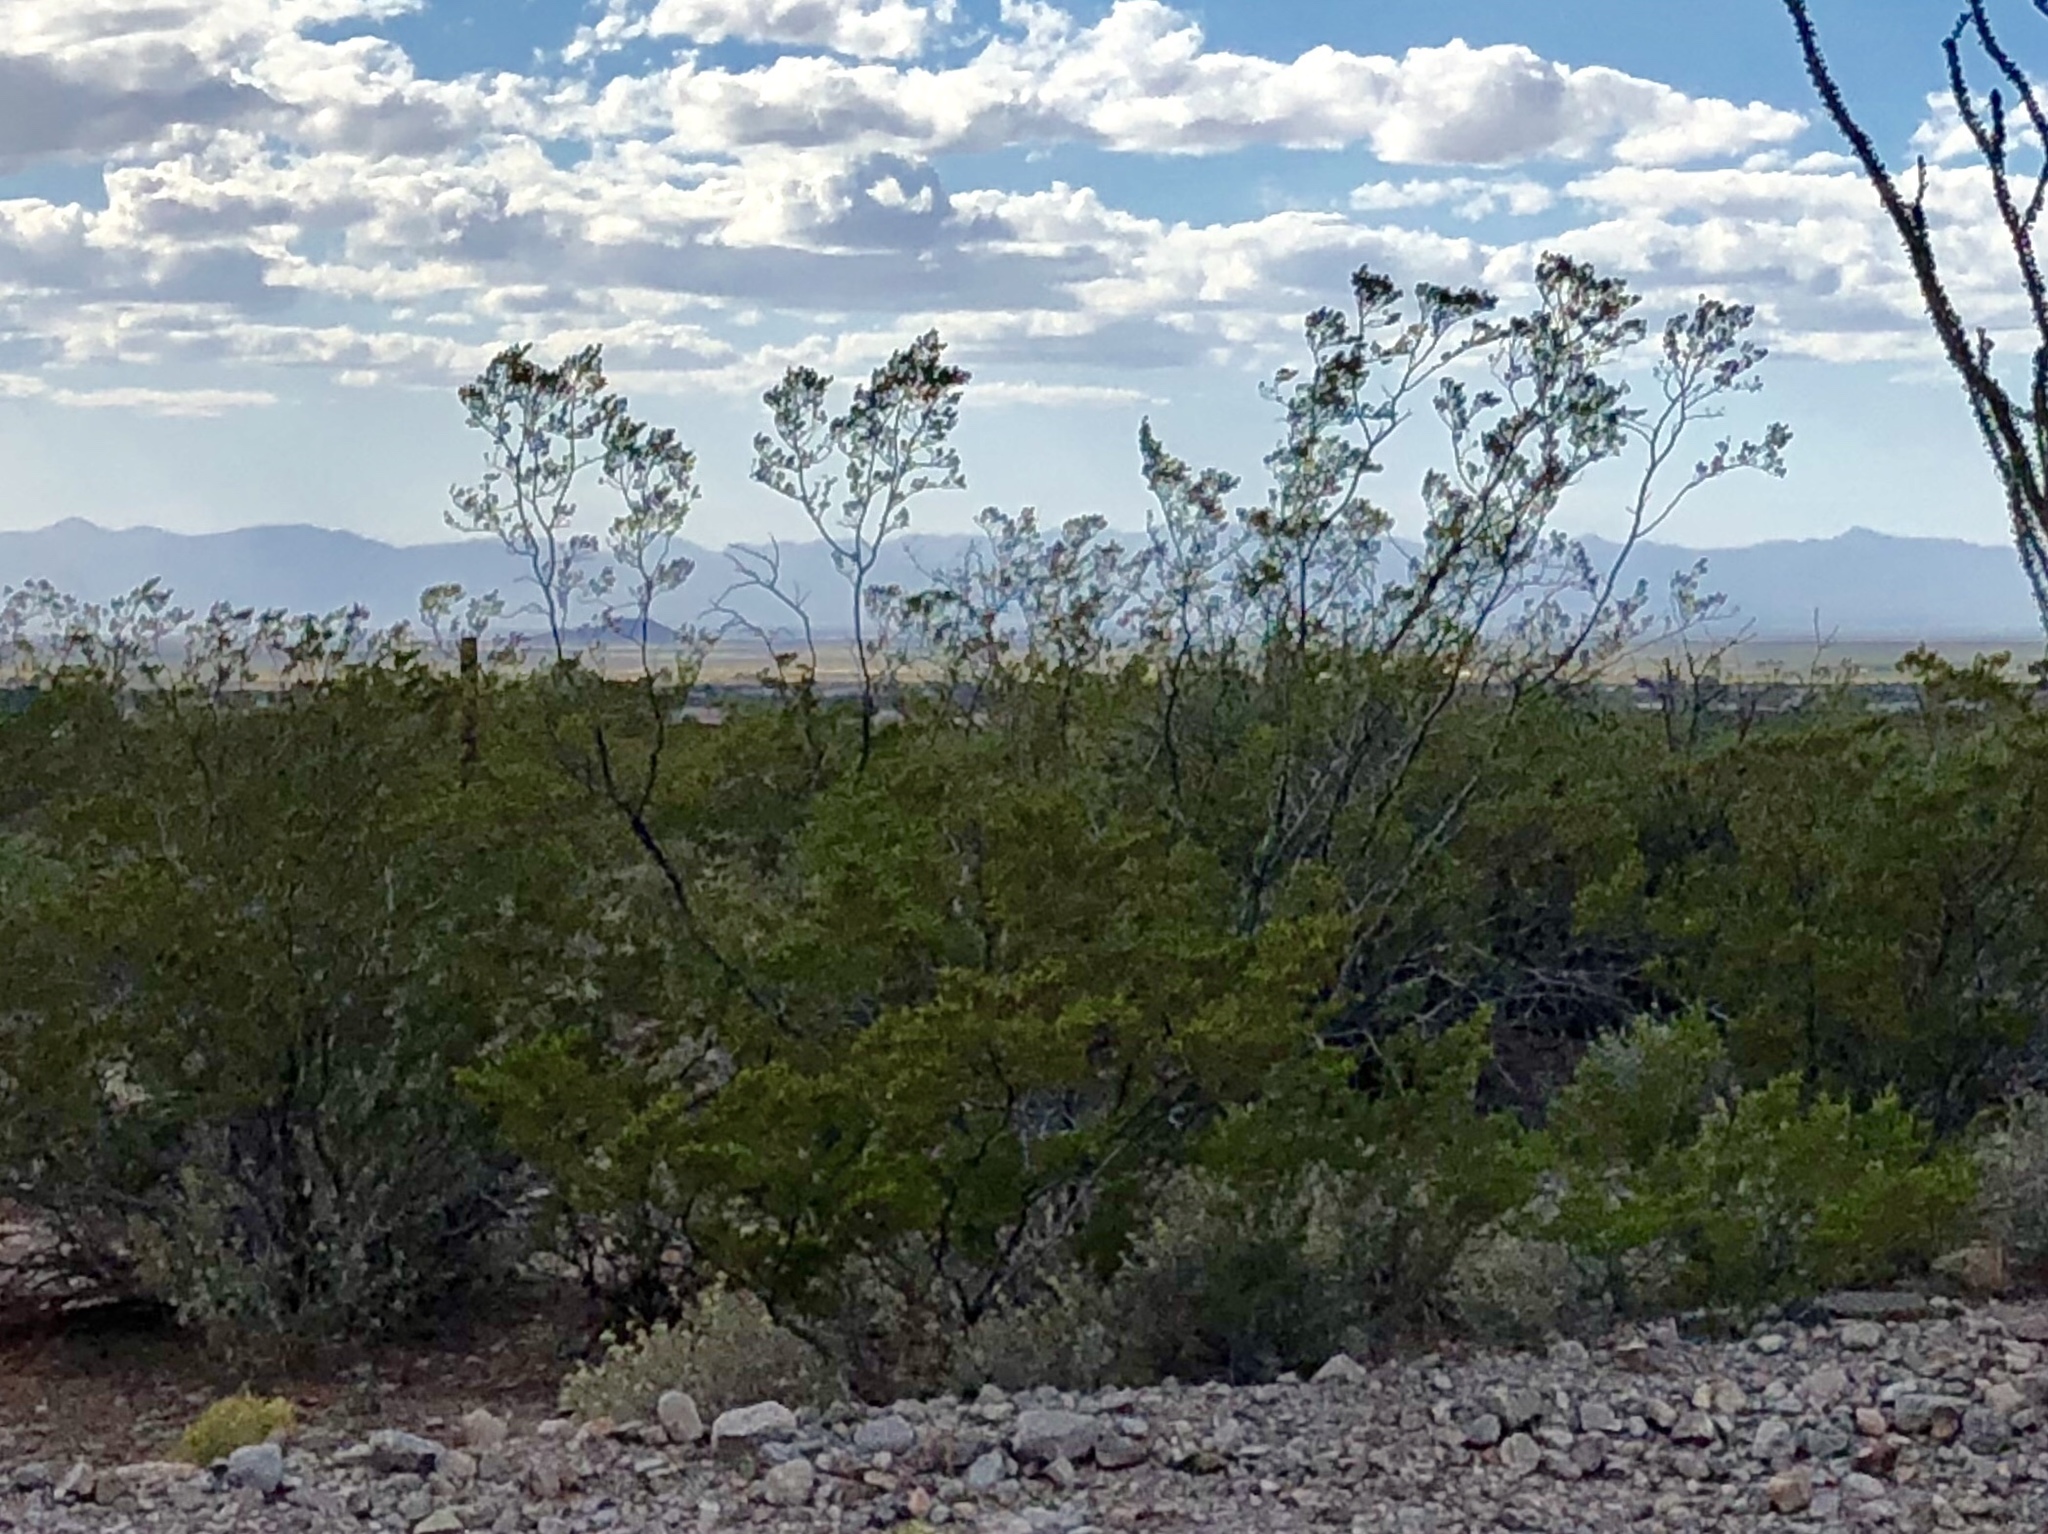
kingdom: Plantae
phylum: Tracheophyta
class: Magnoliopsida
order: Zygophyllales
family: Zygophyllaceae
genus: Larrea
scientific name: Larrea tridentata
